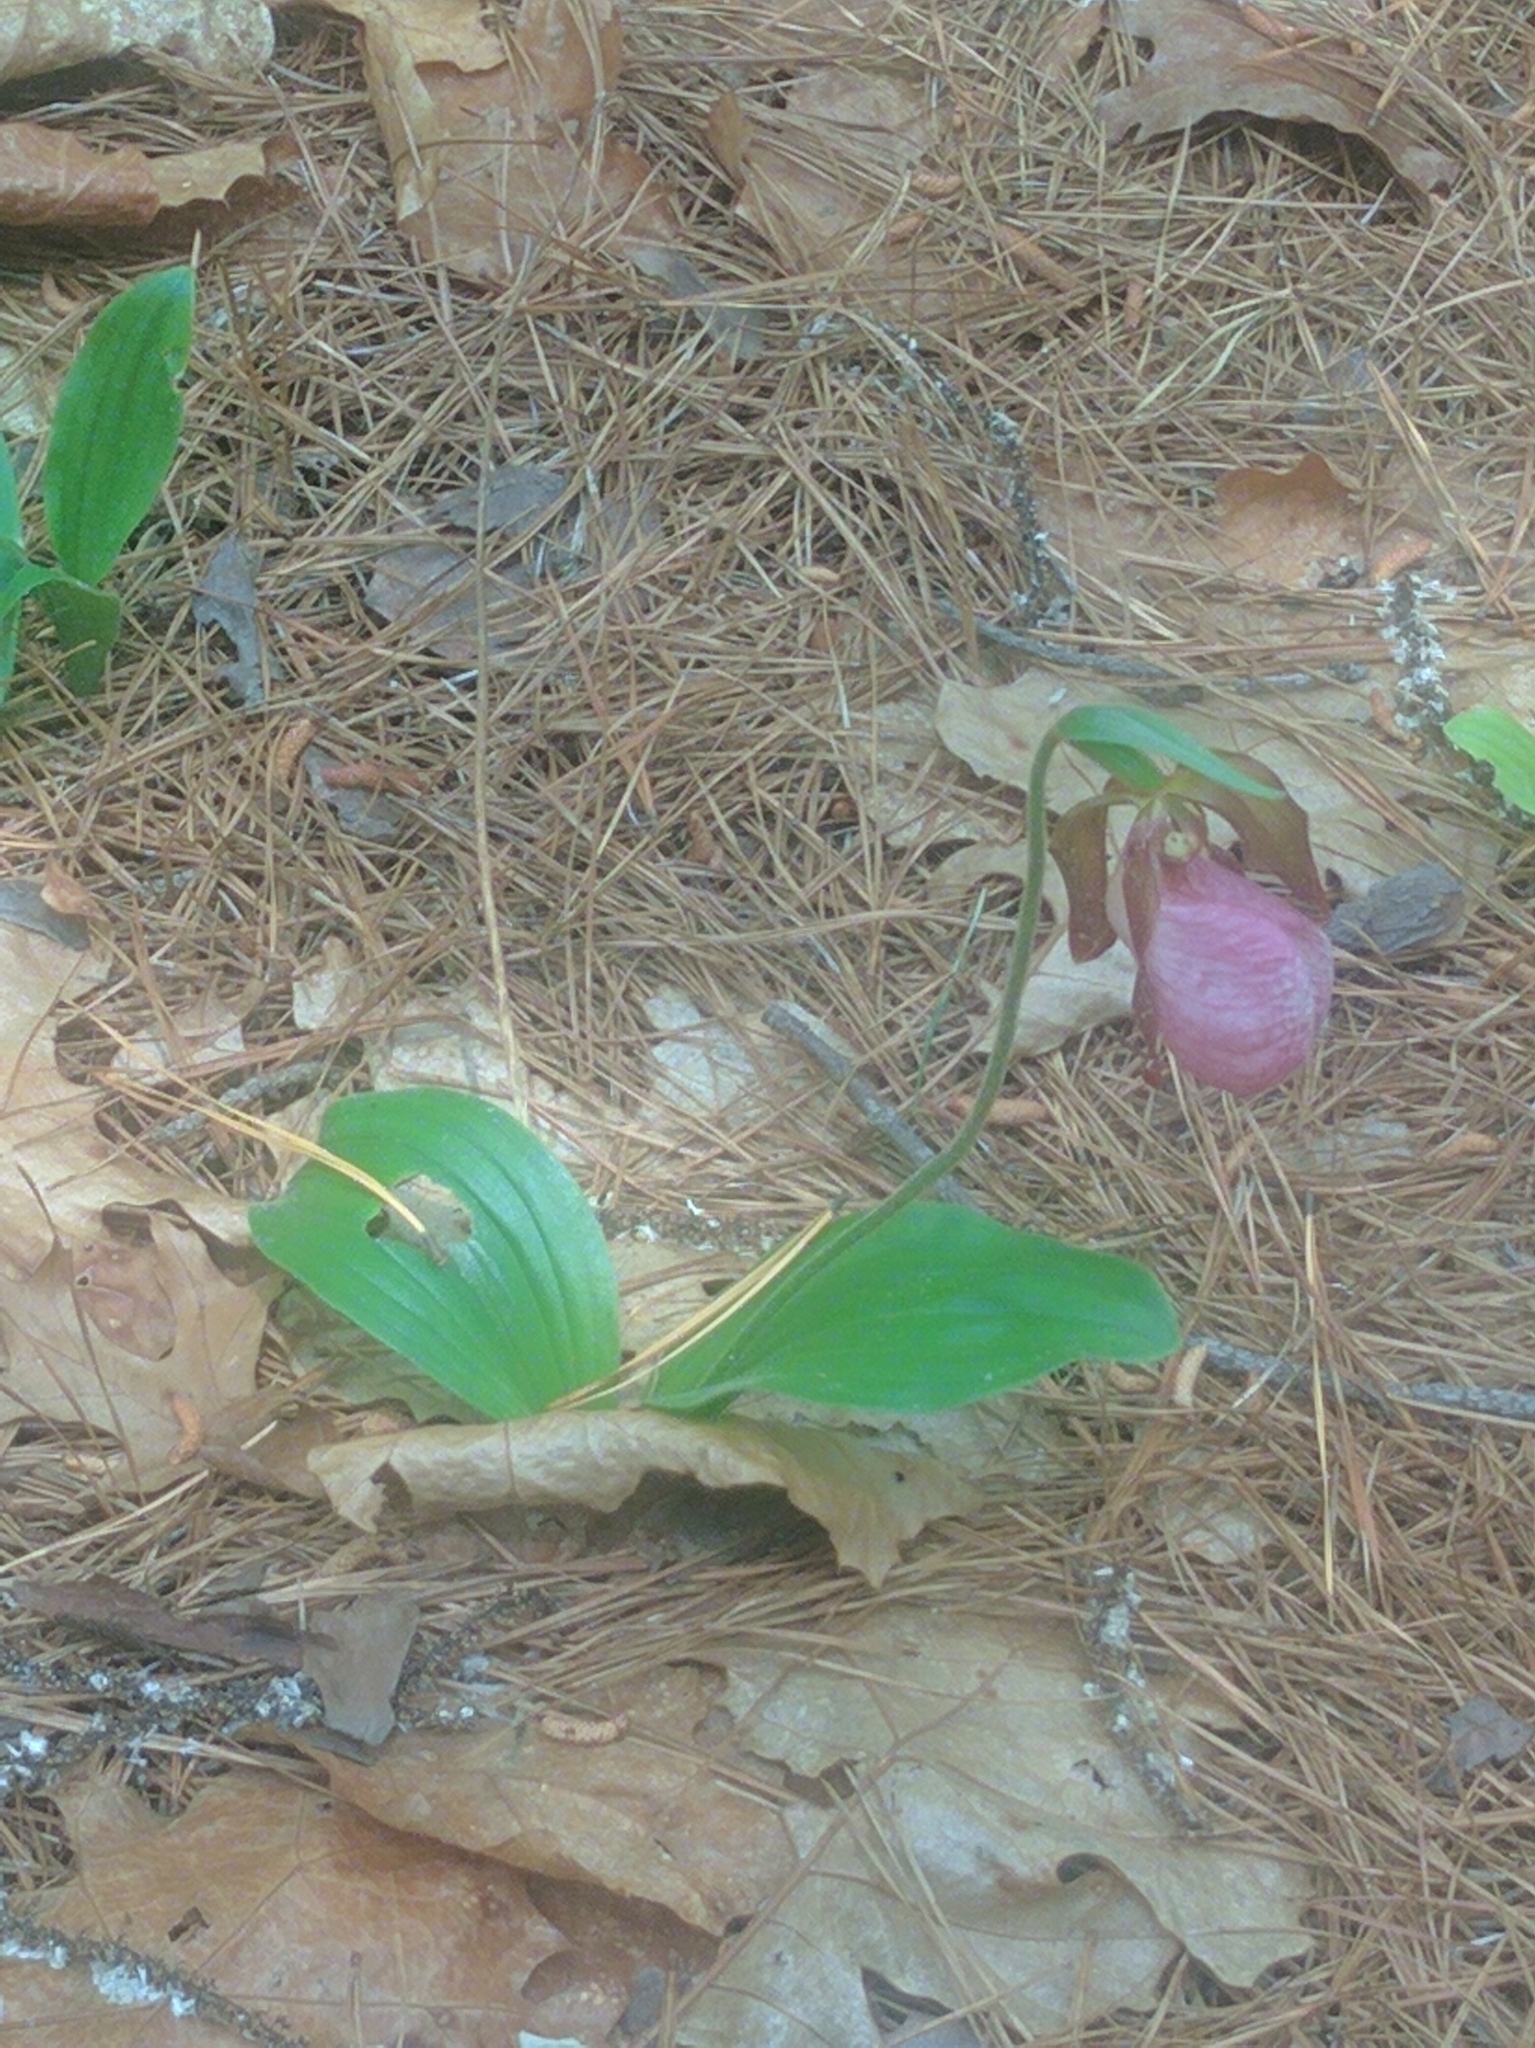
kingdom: Plantae
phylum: Tracheophyta
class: Liliopsida
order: Asparagales
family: Orchidaceae
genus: Cypripedium
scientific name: Cypripedium acaule
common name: Pink lady's-slipper
